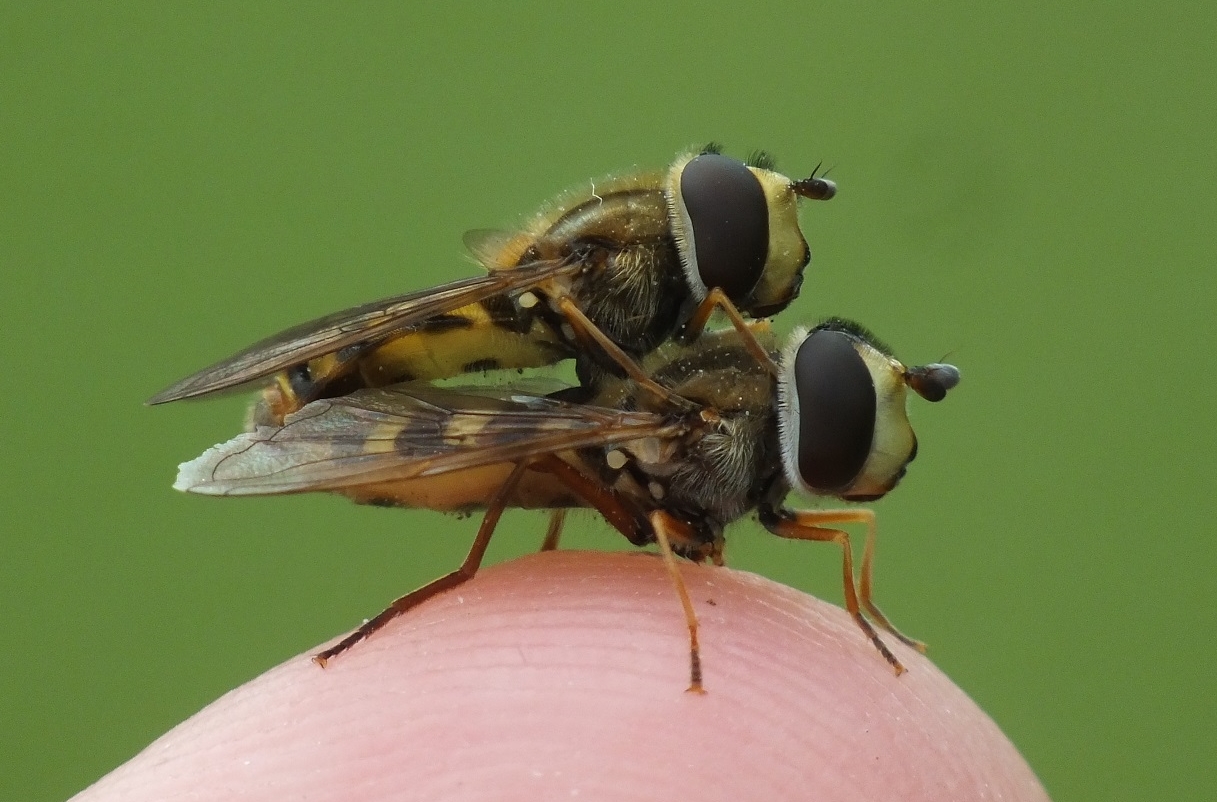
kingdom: Animalia
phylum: Arthropoda
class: Insecta
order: Diptera
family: Syrphidae
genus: Eupeodes
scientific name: Eupeodes corollae
